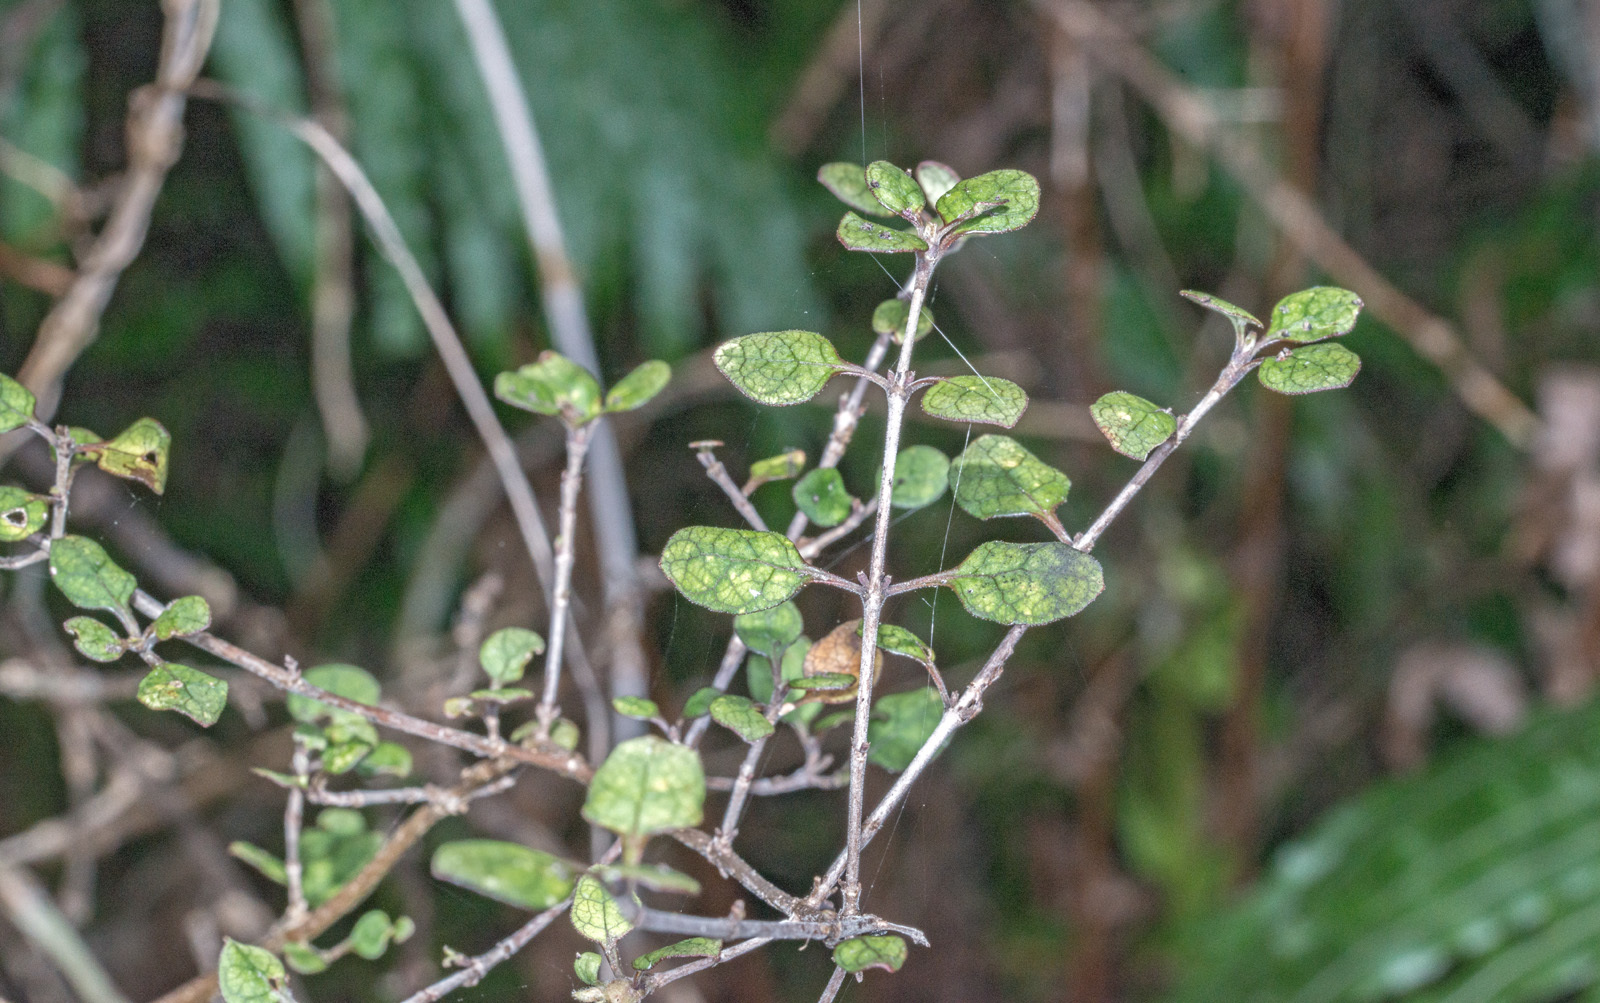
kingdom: Plantae
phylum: Tracheophyta
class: Magnoliopsida
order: Gentianales
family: Rubiaceae
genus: Coprosma
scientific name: Coprosma tenuicaulis
